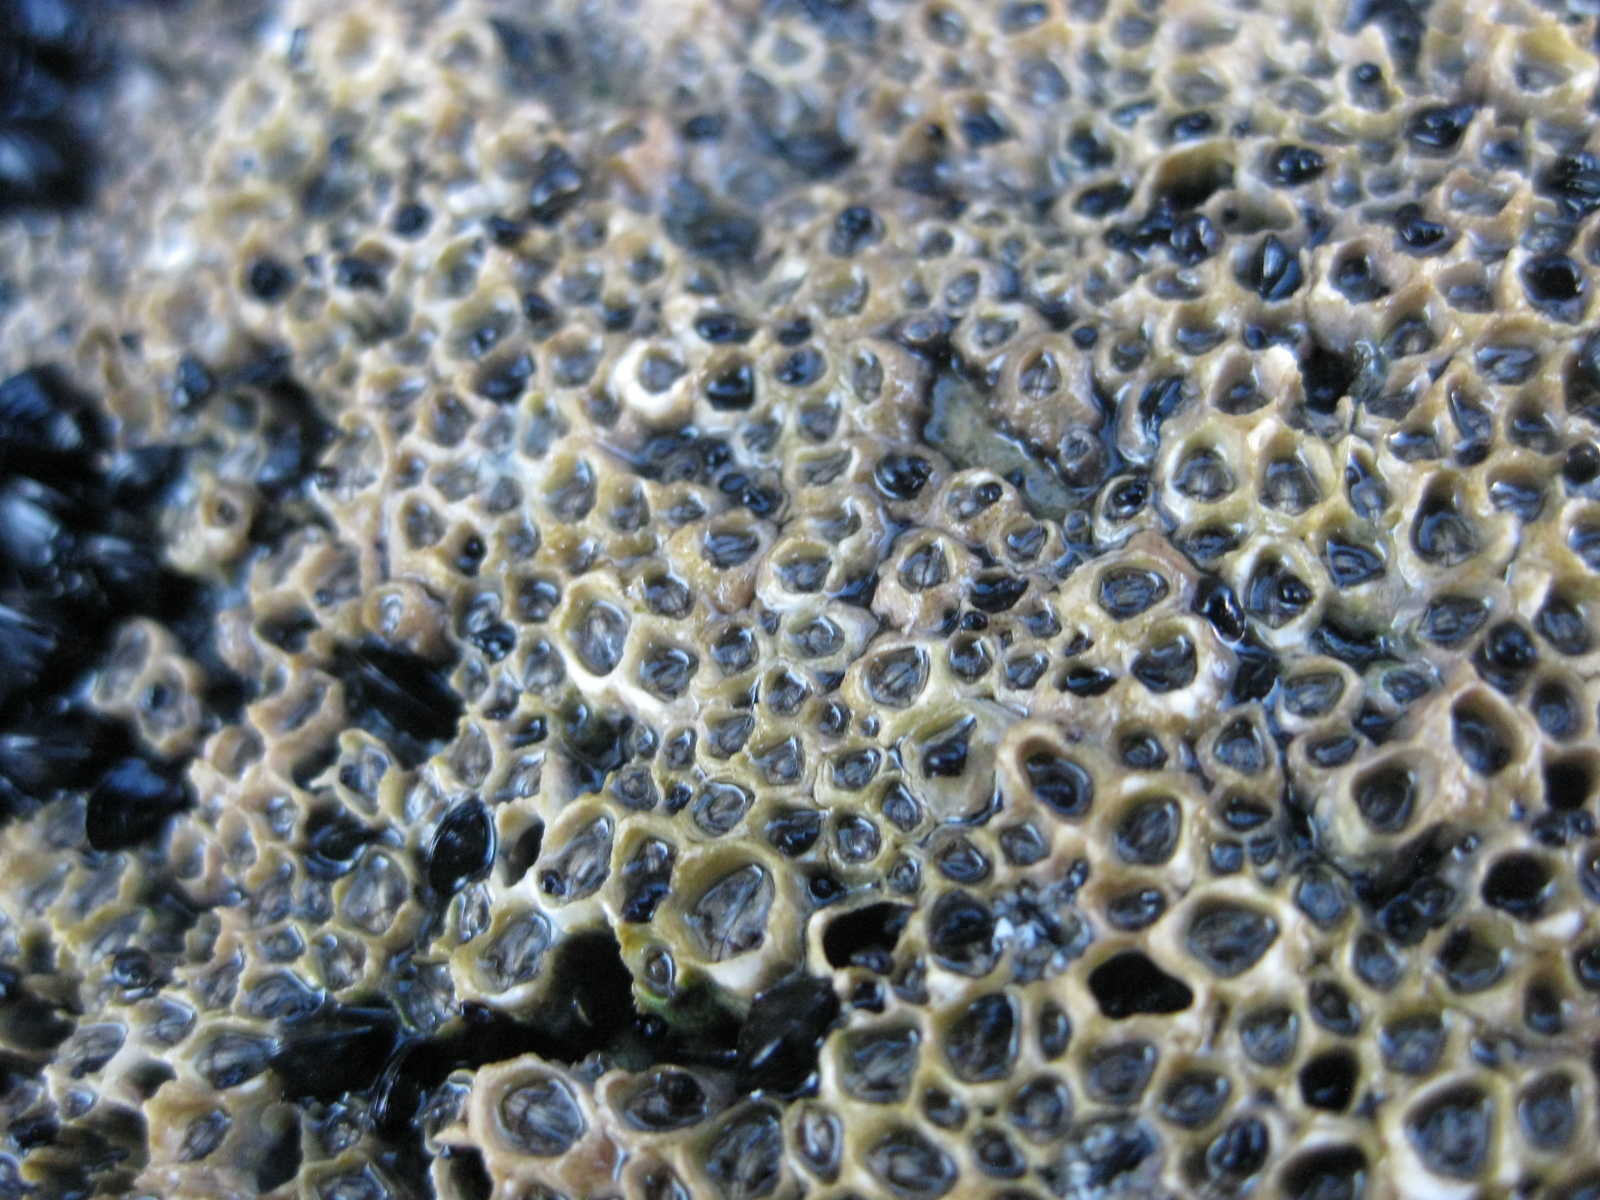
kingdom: Animalia
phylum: Arthropoda
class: Maxillopoda
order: Sessilia
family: Chthamalidae
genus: Chamaesipho
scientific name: Chamaesipho columna
